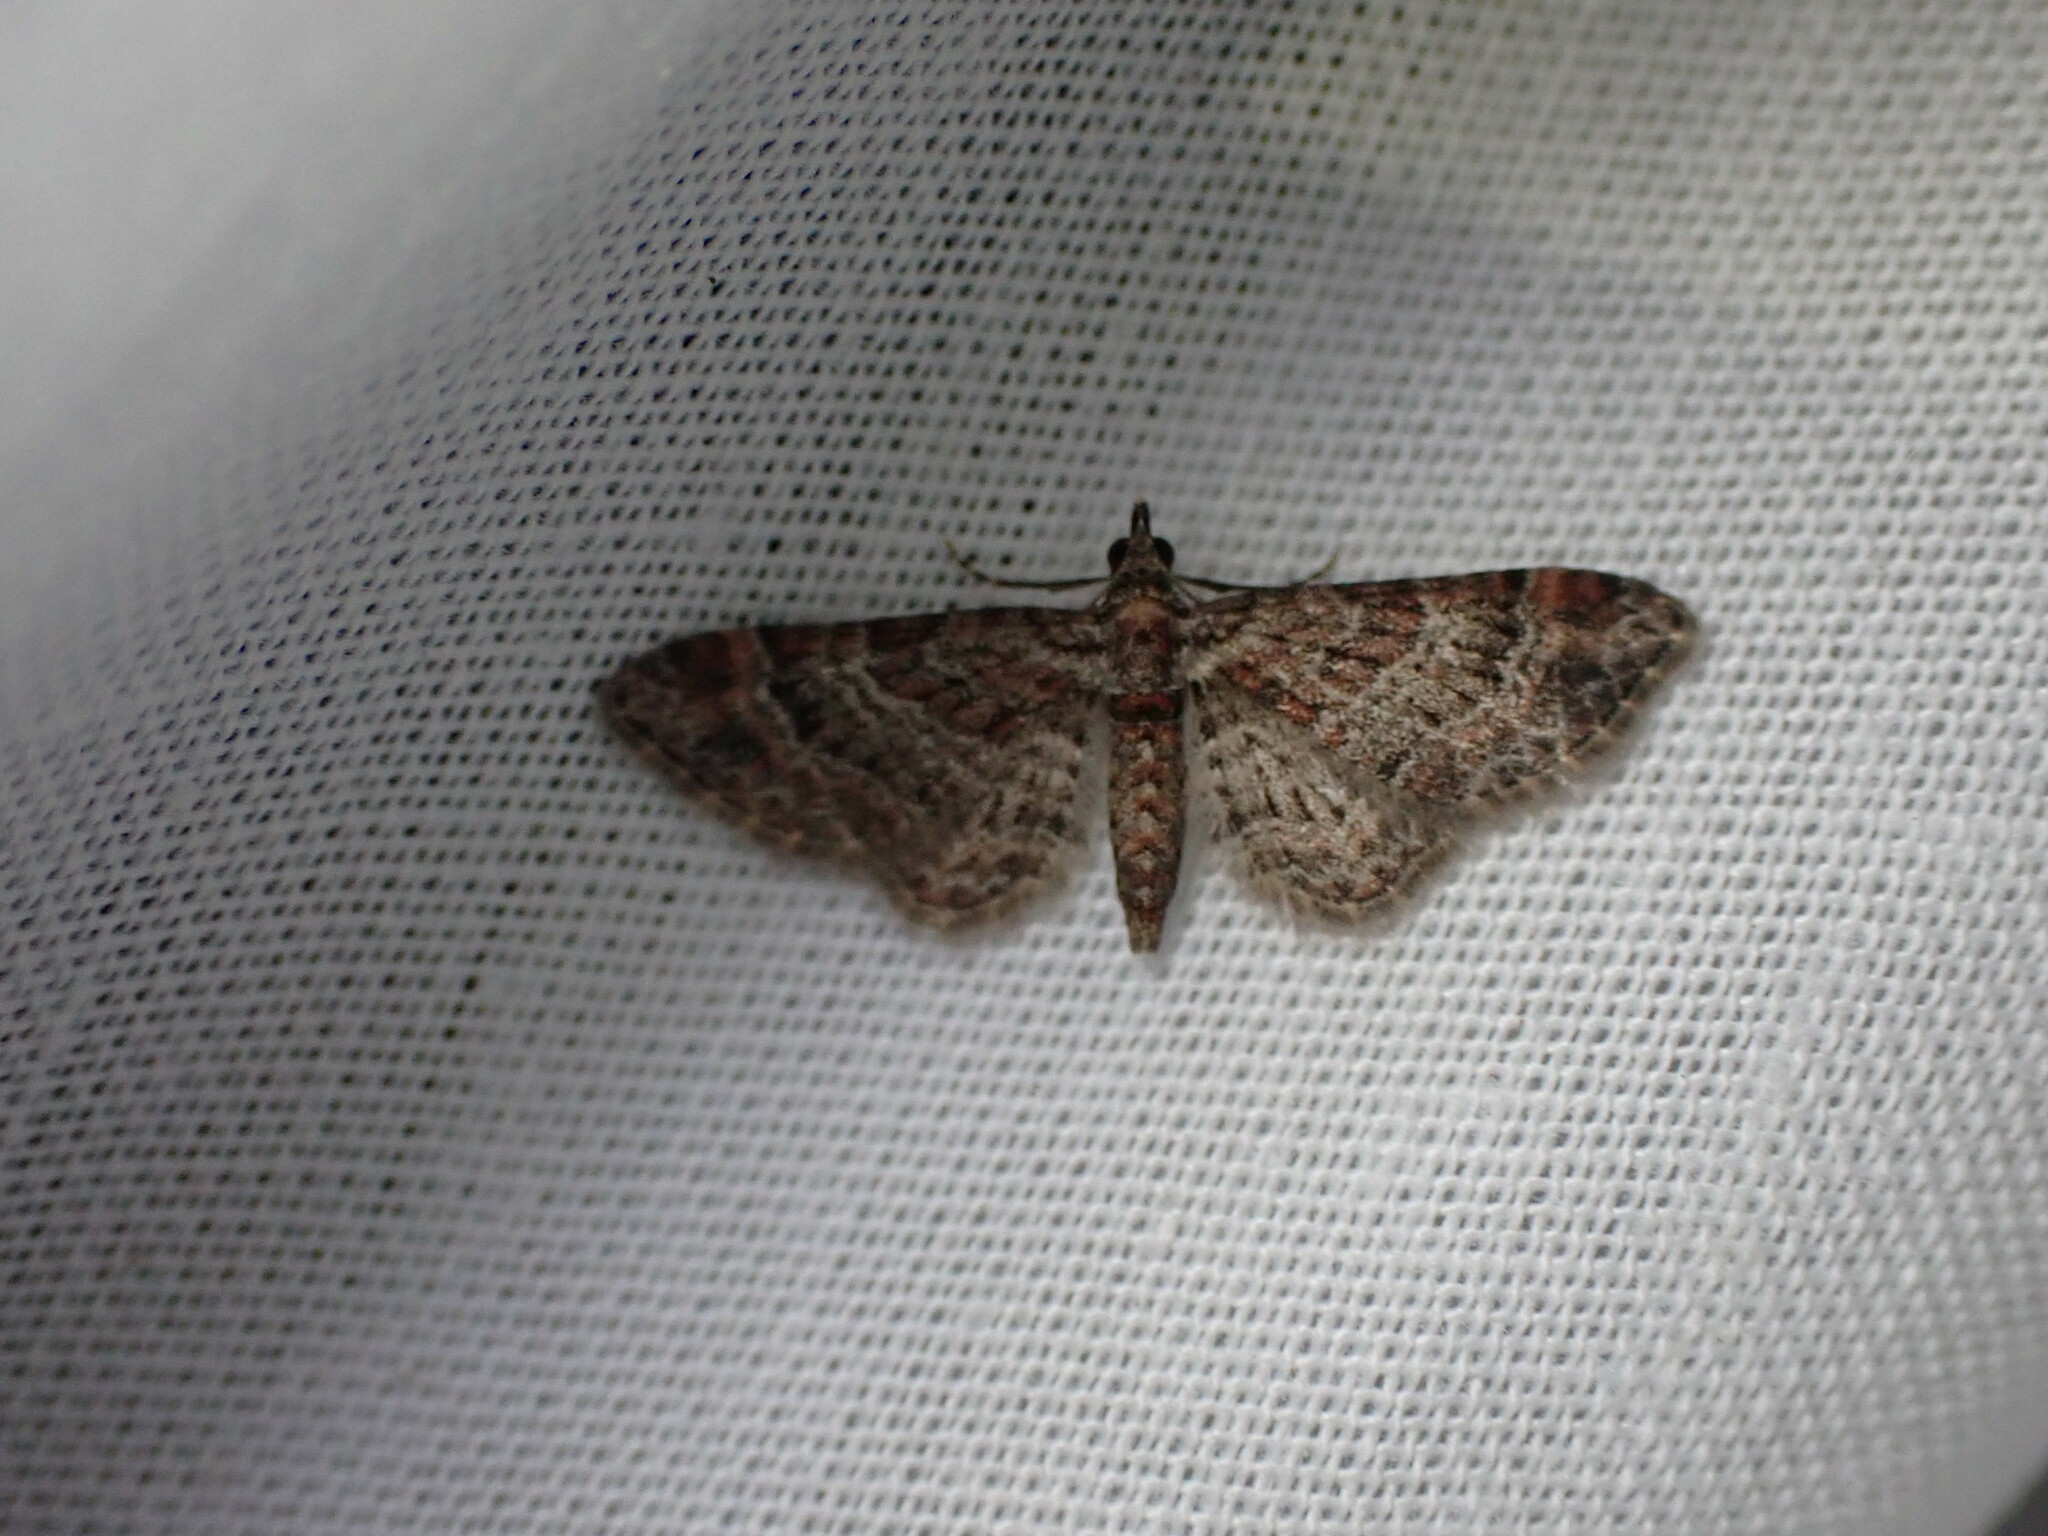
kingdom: Animalia
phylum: Arthropoda
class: Insecta
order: Lepidoptera
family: Geometridae
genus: Gymnoscelis
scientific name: Gymnoscelis rufifasciata
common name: Double-striped pug
